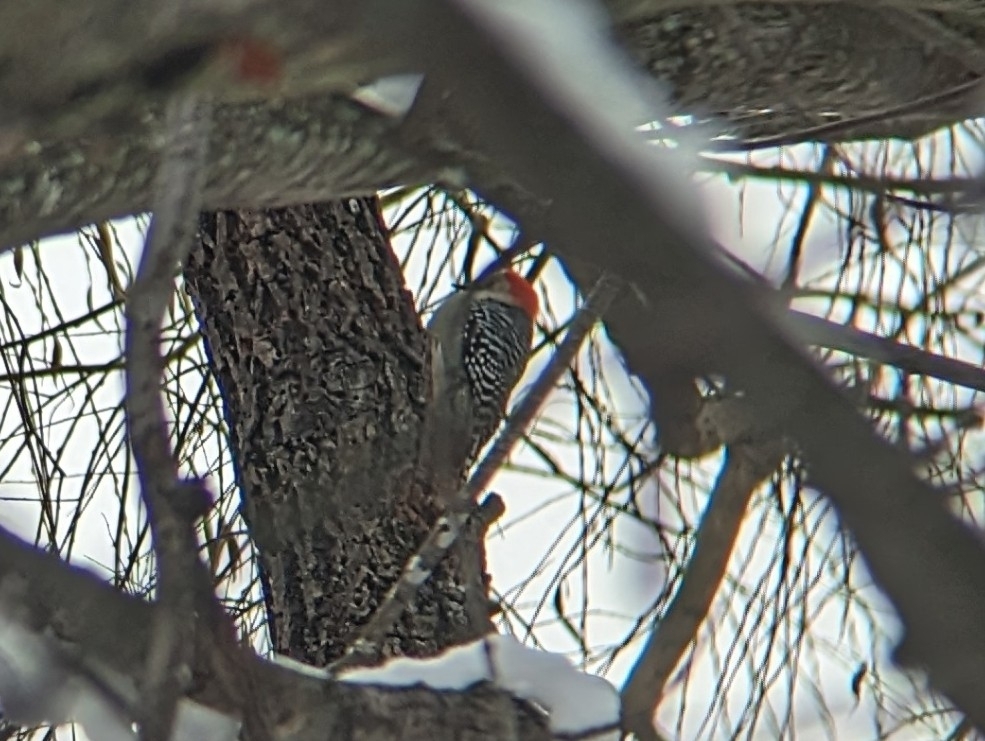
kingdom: Animalia
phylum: Chordata
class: Aves
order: Piciformes
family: Picidae
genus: Melanerpes
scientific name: Melanerpes carolinus
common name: Red-bellied woodpecker
